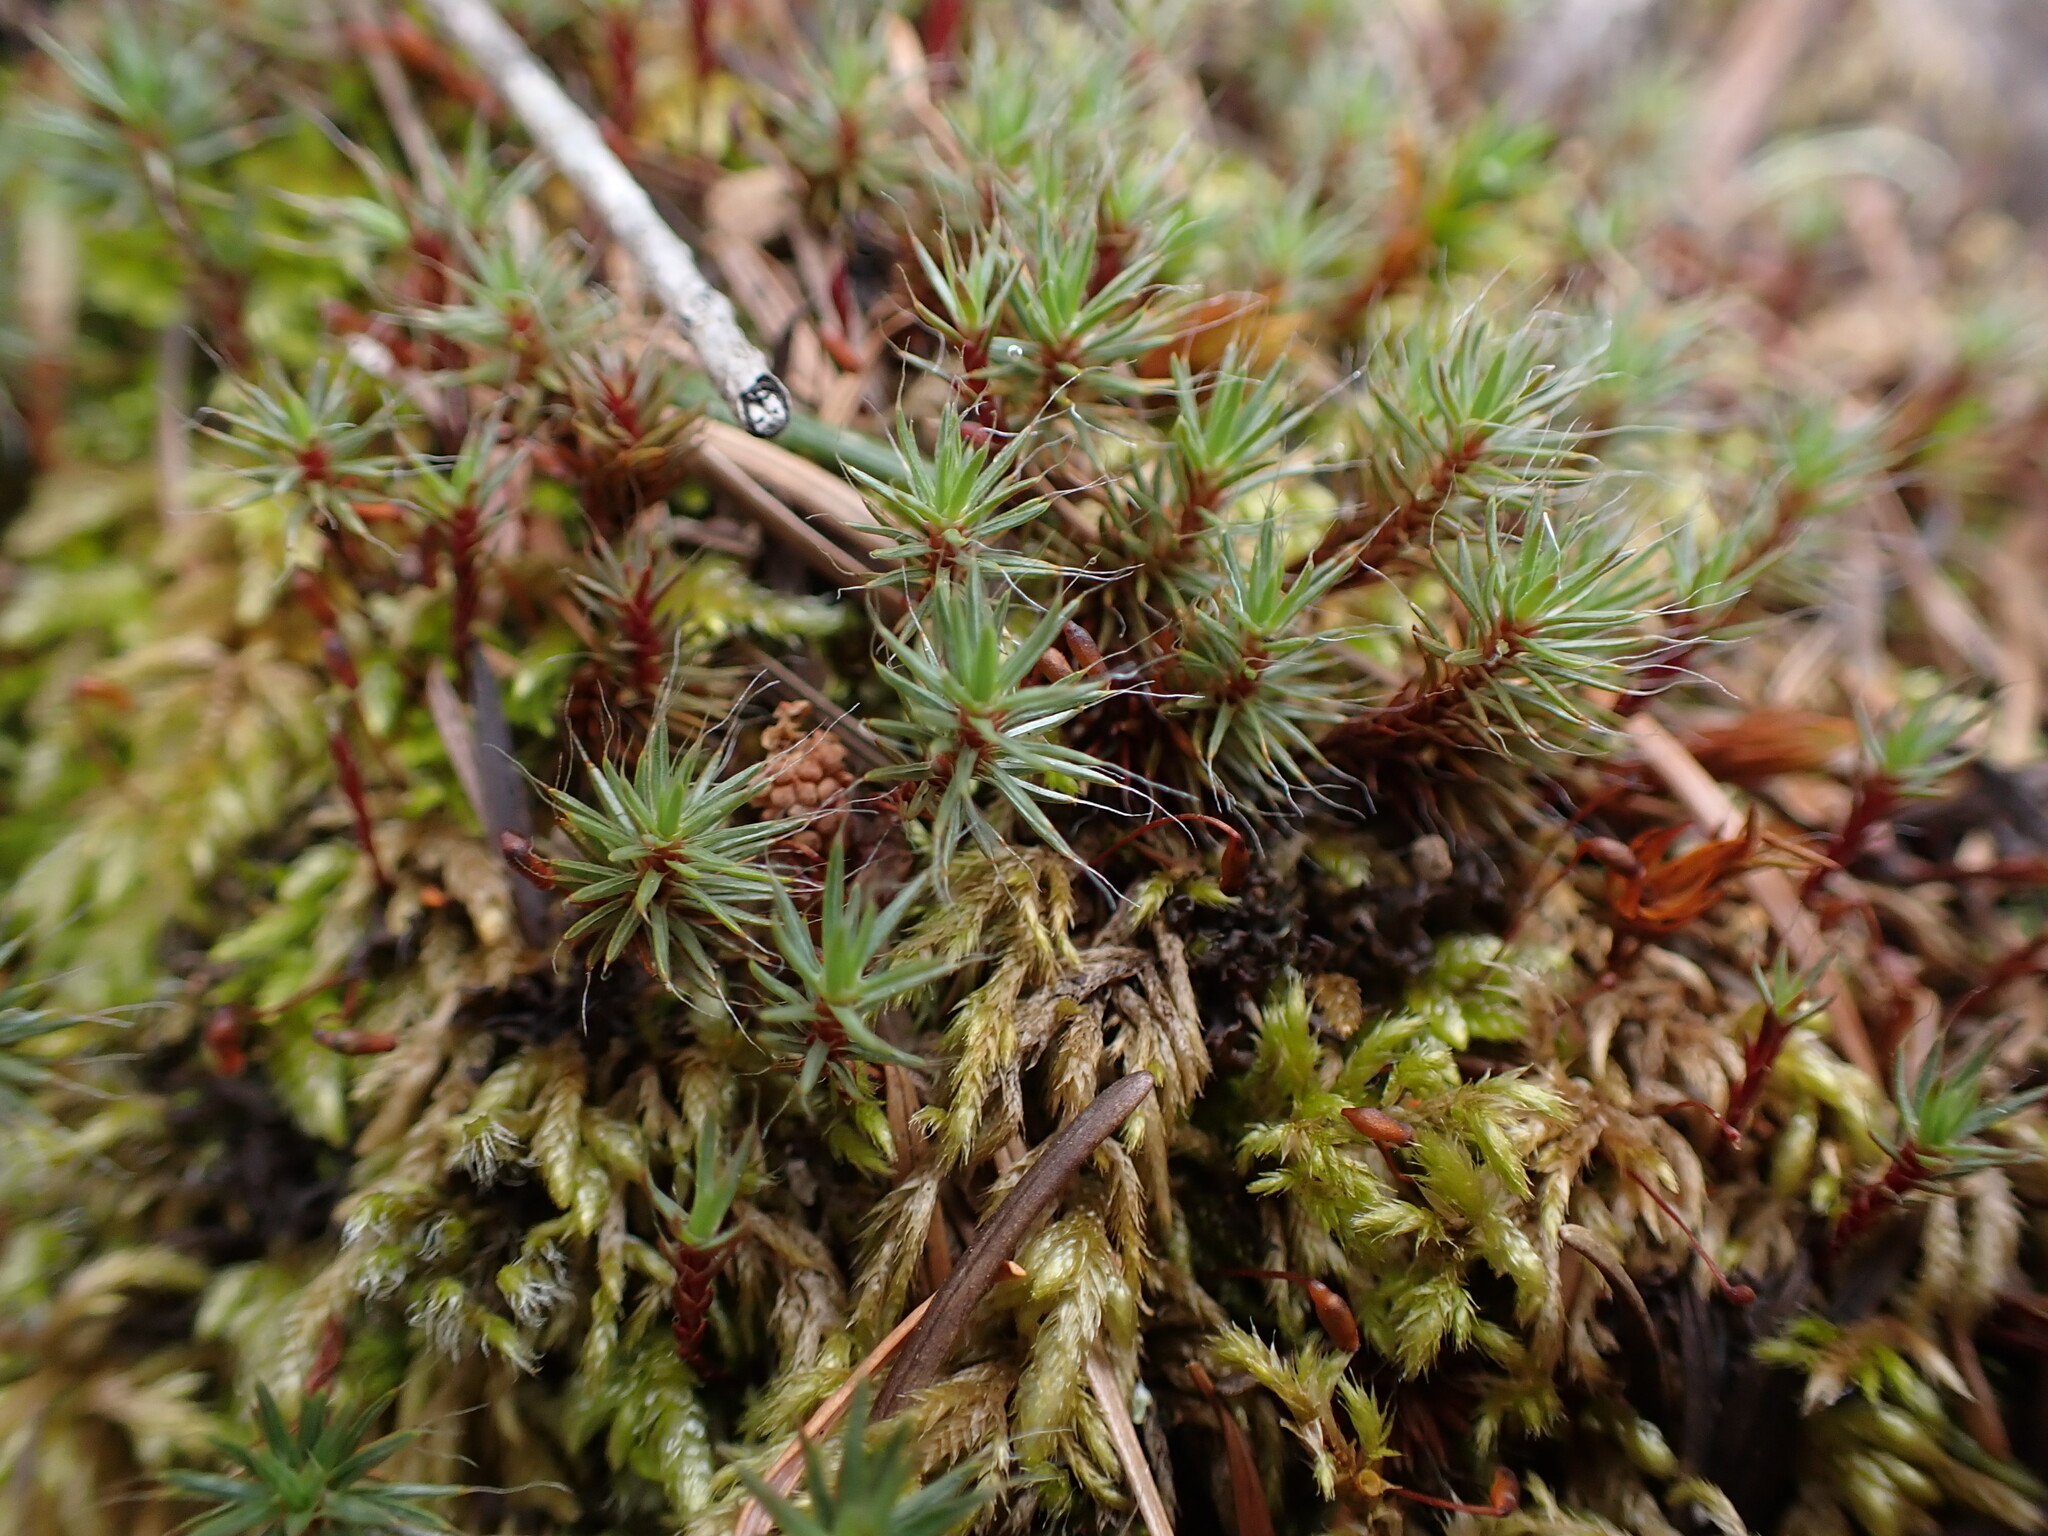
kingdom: Plantae
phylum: Bryophyta
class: Polytrichopsida
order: Polytrichales
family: Polytrichaceae
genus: Polytrichum
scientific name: Polytrichum piliferum
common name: Bristly haircap
